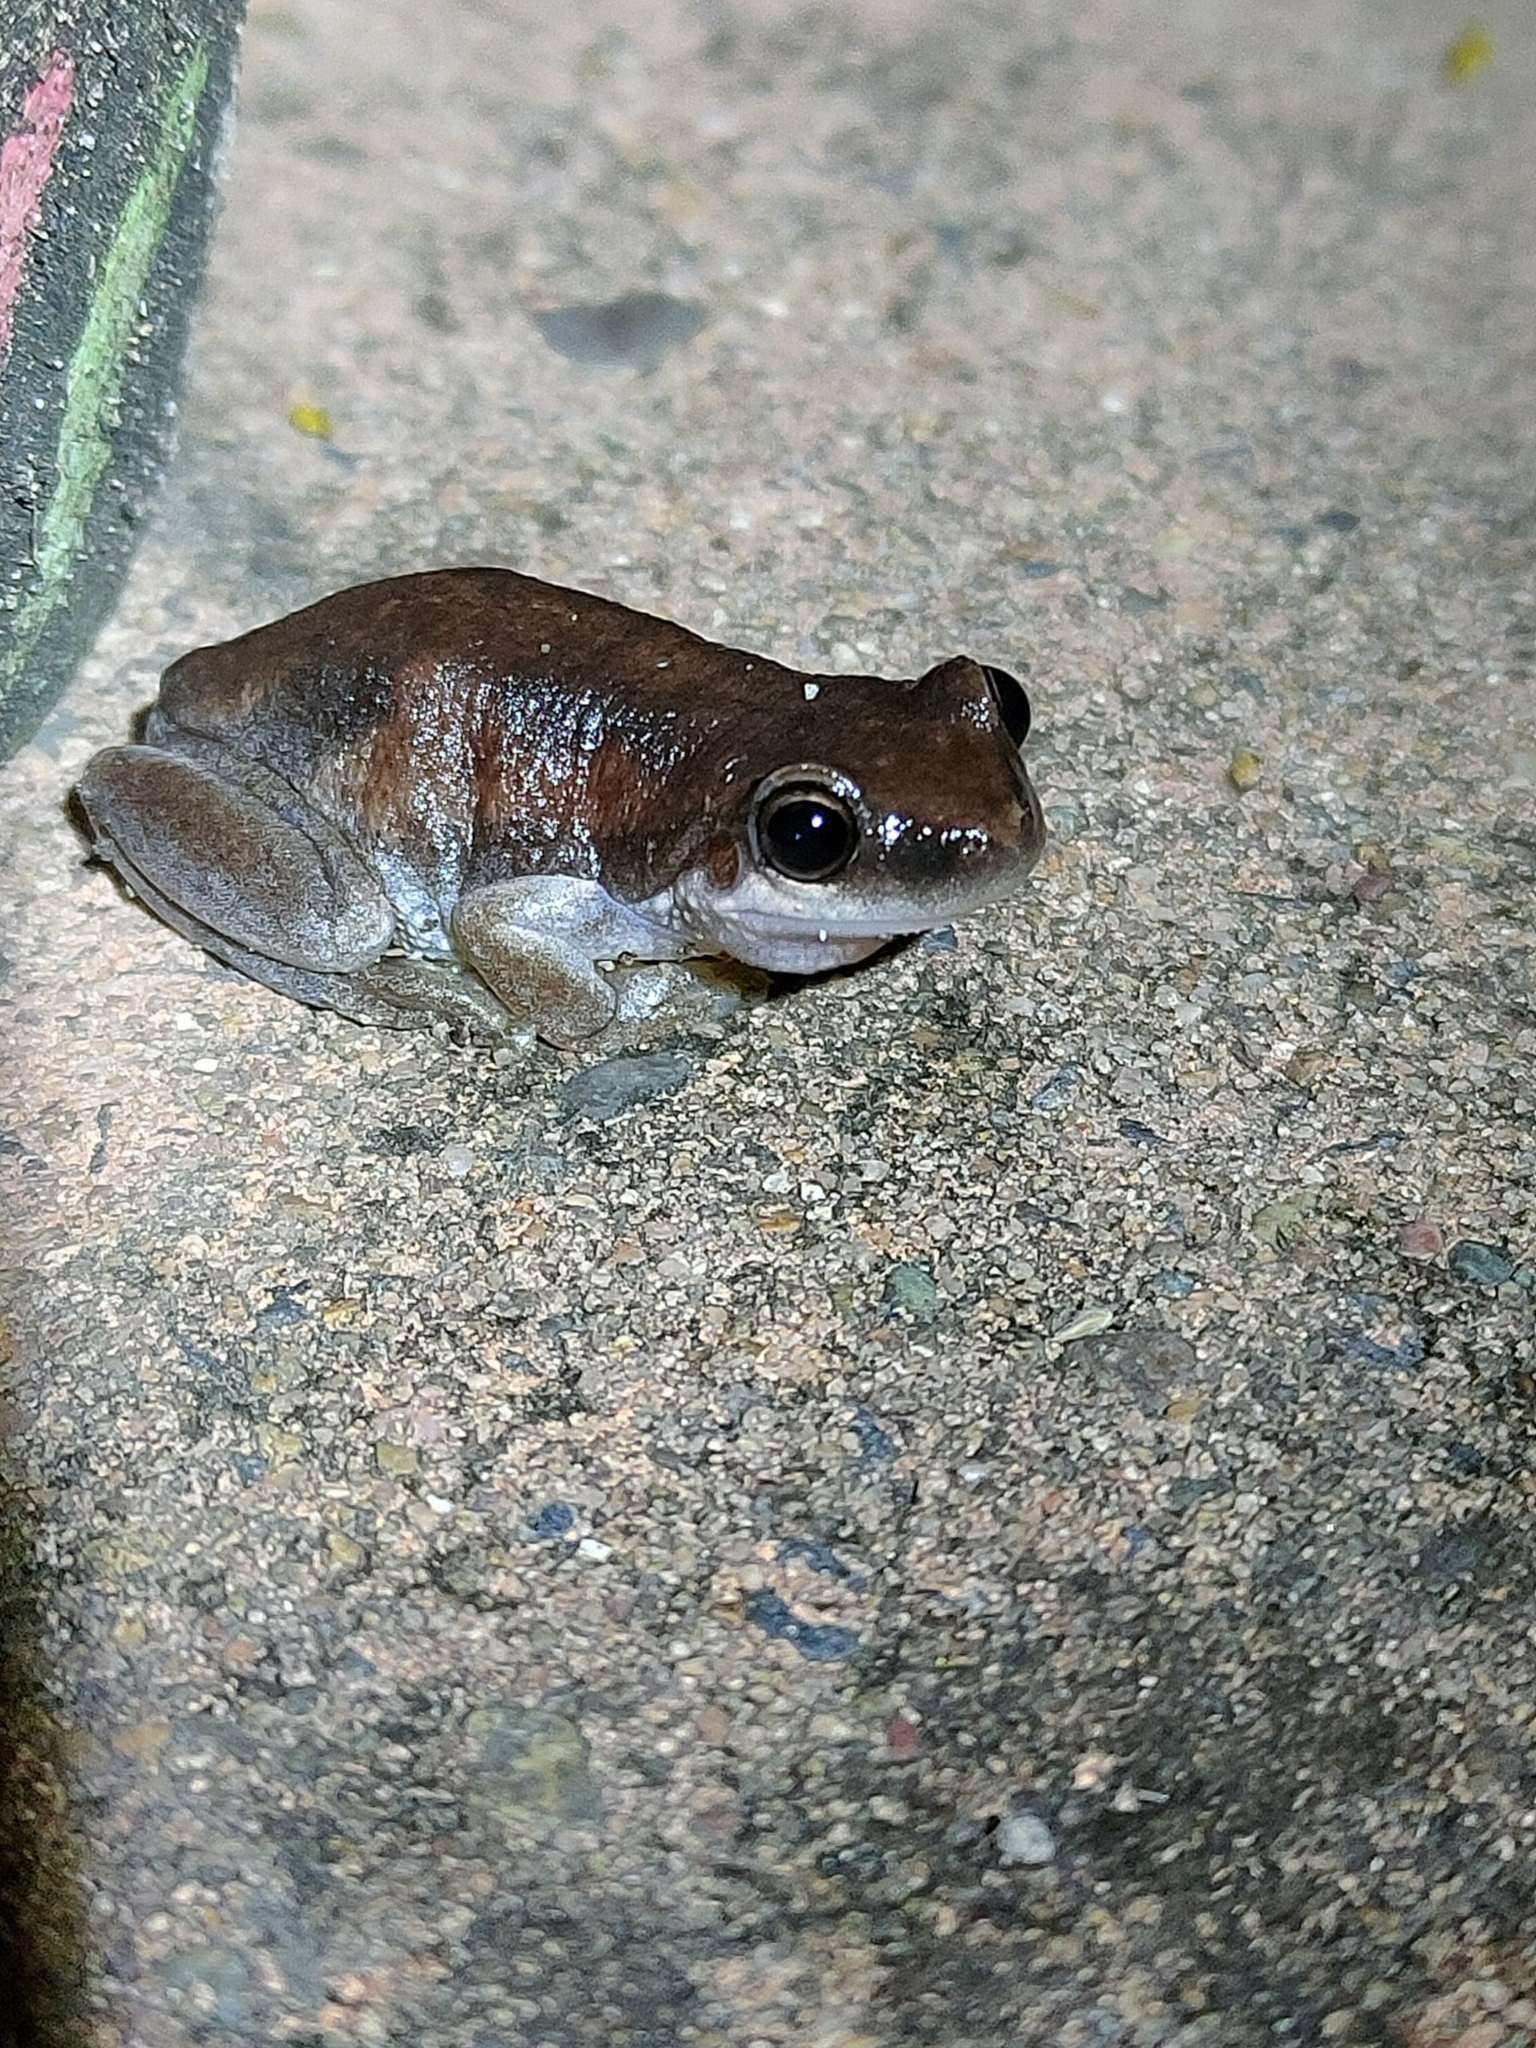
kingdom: Animalia
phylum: Chordata
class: Amphibia
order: Anura
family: Pelodryadidae
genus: Litoria
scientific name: Litoria rubella
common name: Desert tree frog
